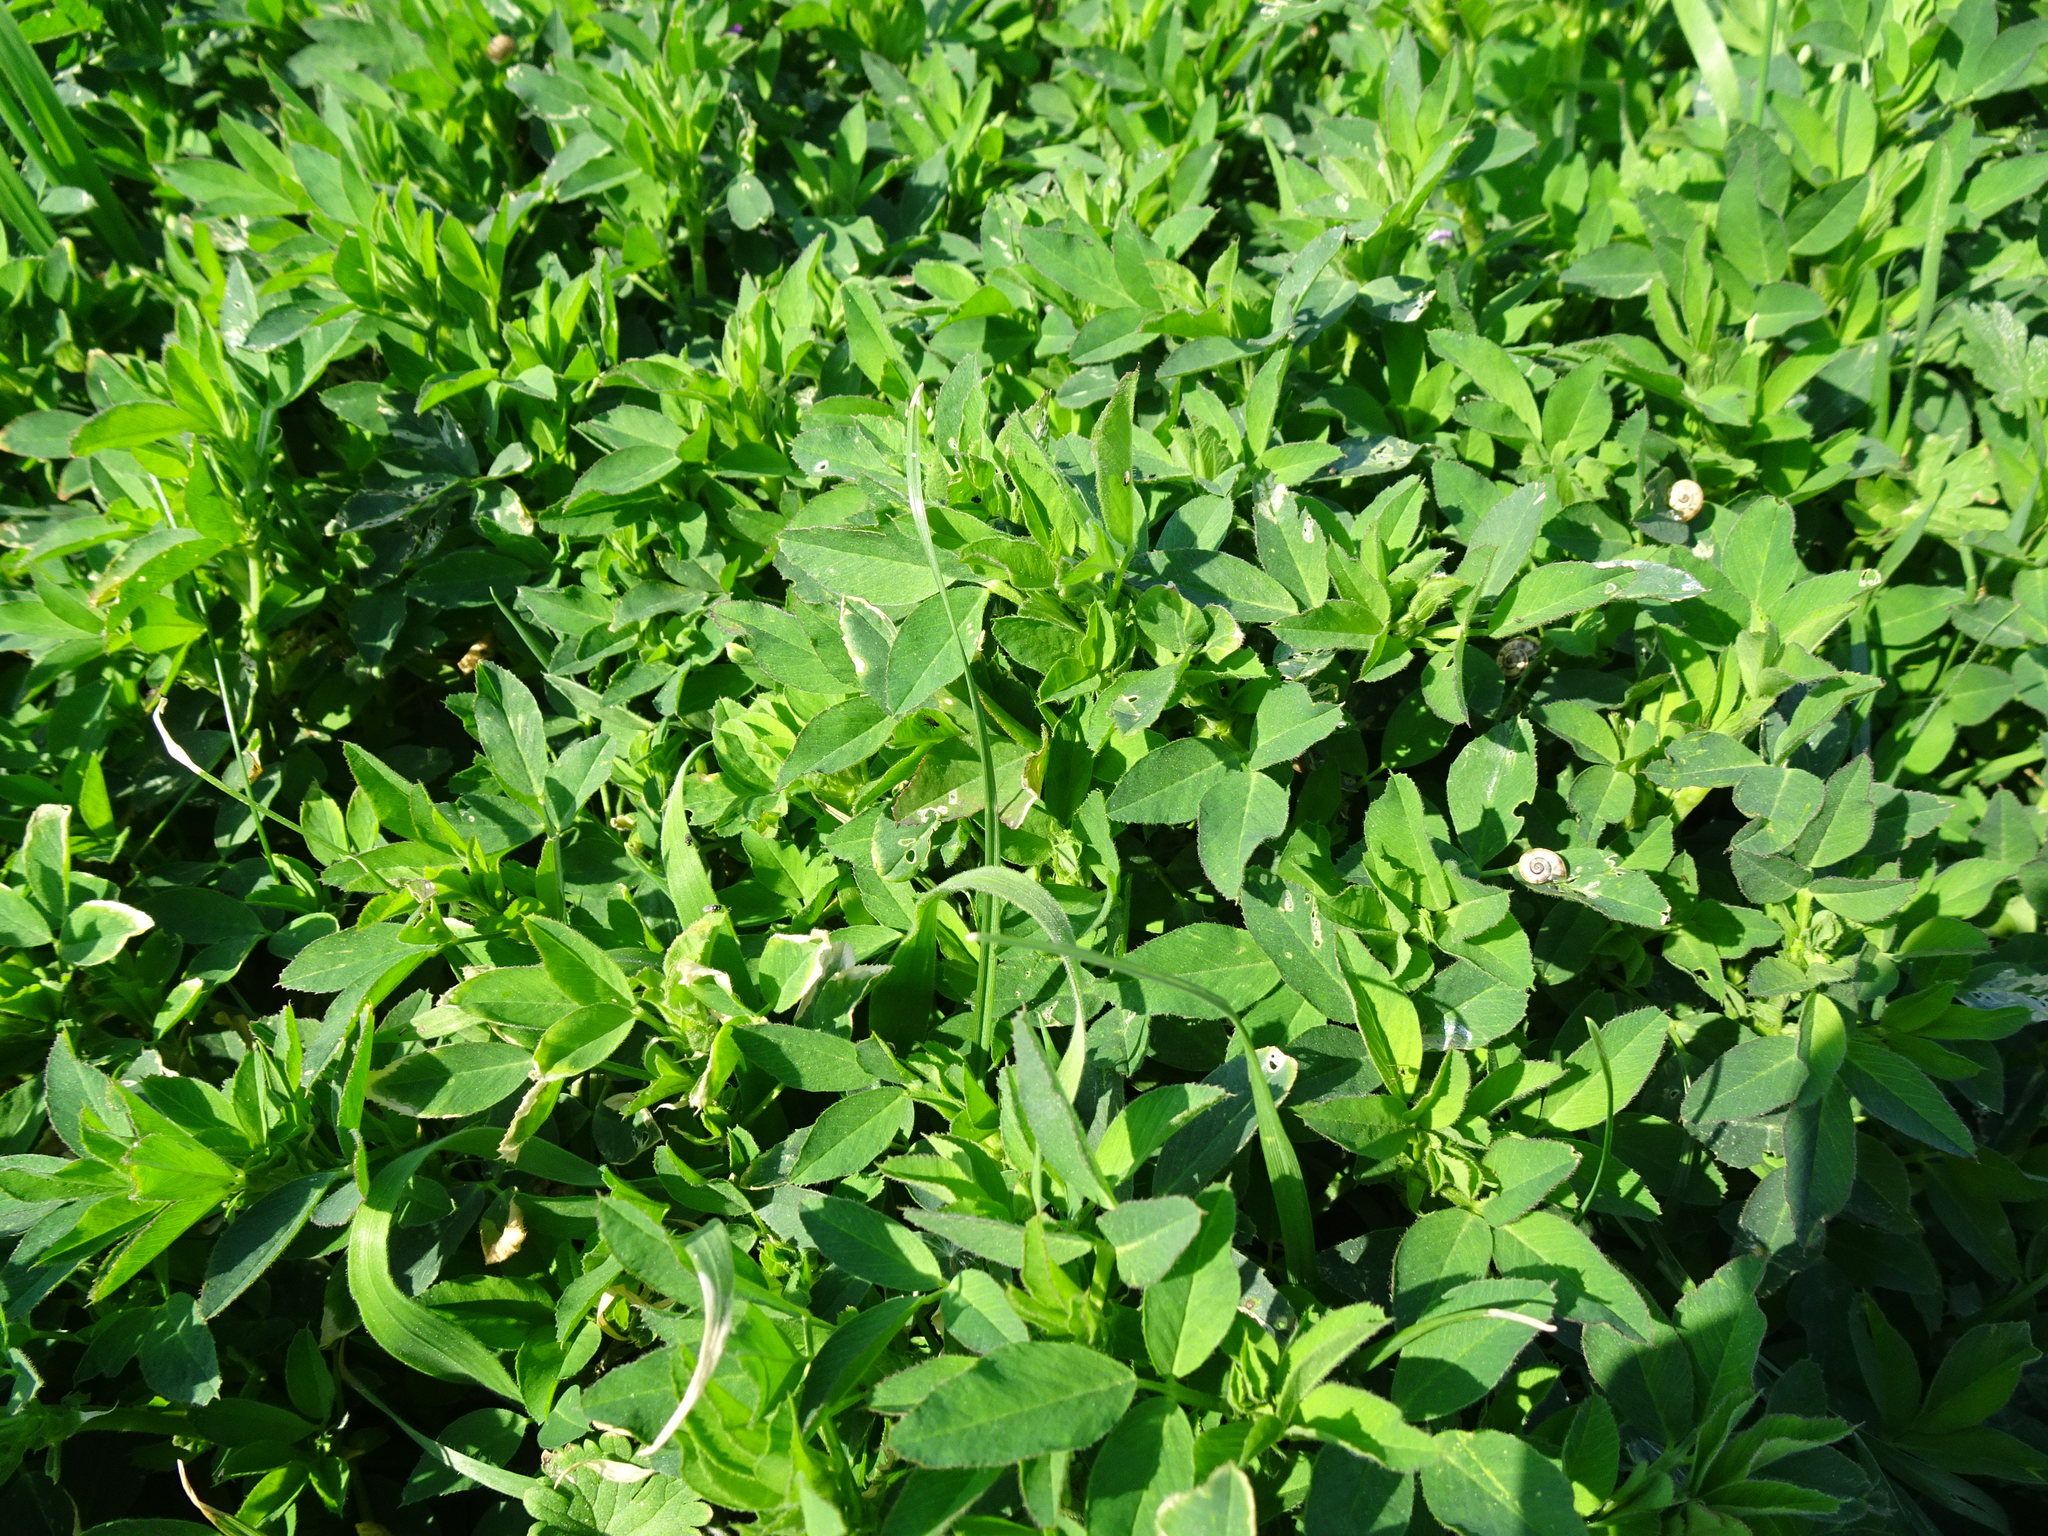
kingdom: Plantae
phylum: Tracheophyta
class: Magnoliopsida
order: Fabales
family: Fabaceae
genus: Medicago
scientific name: Medicago sativa
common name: Alfalfa
